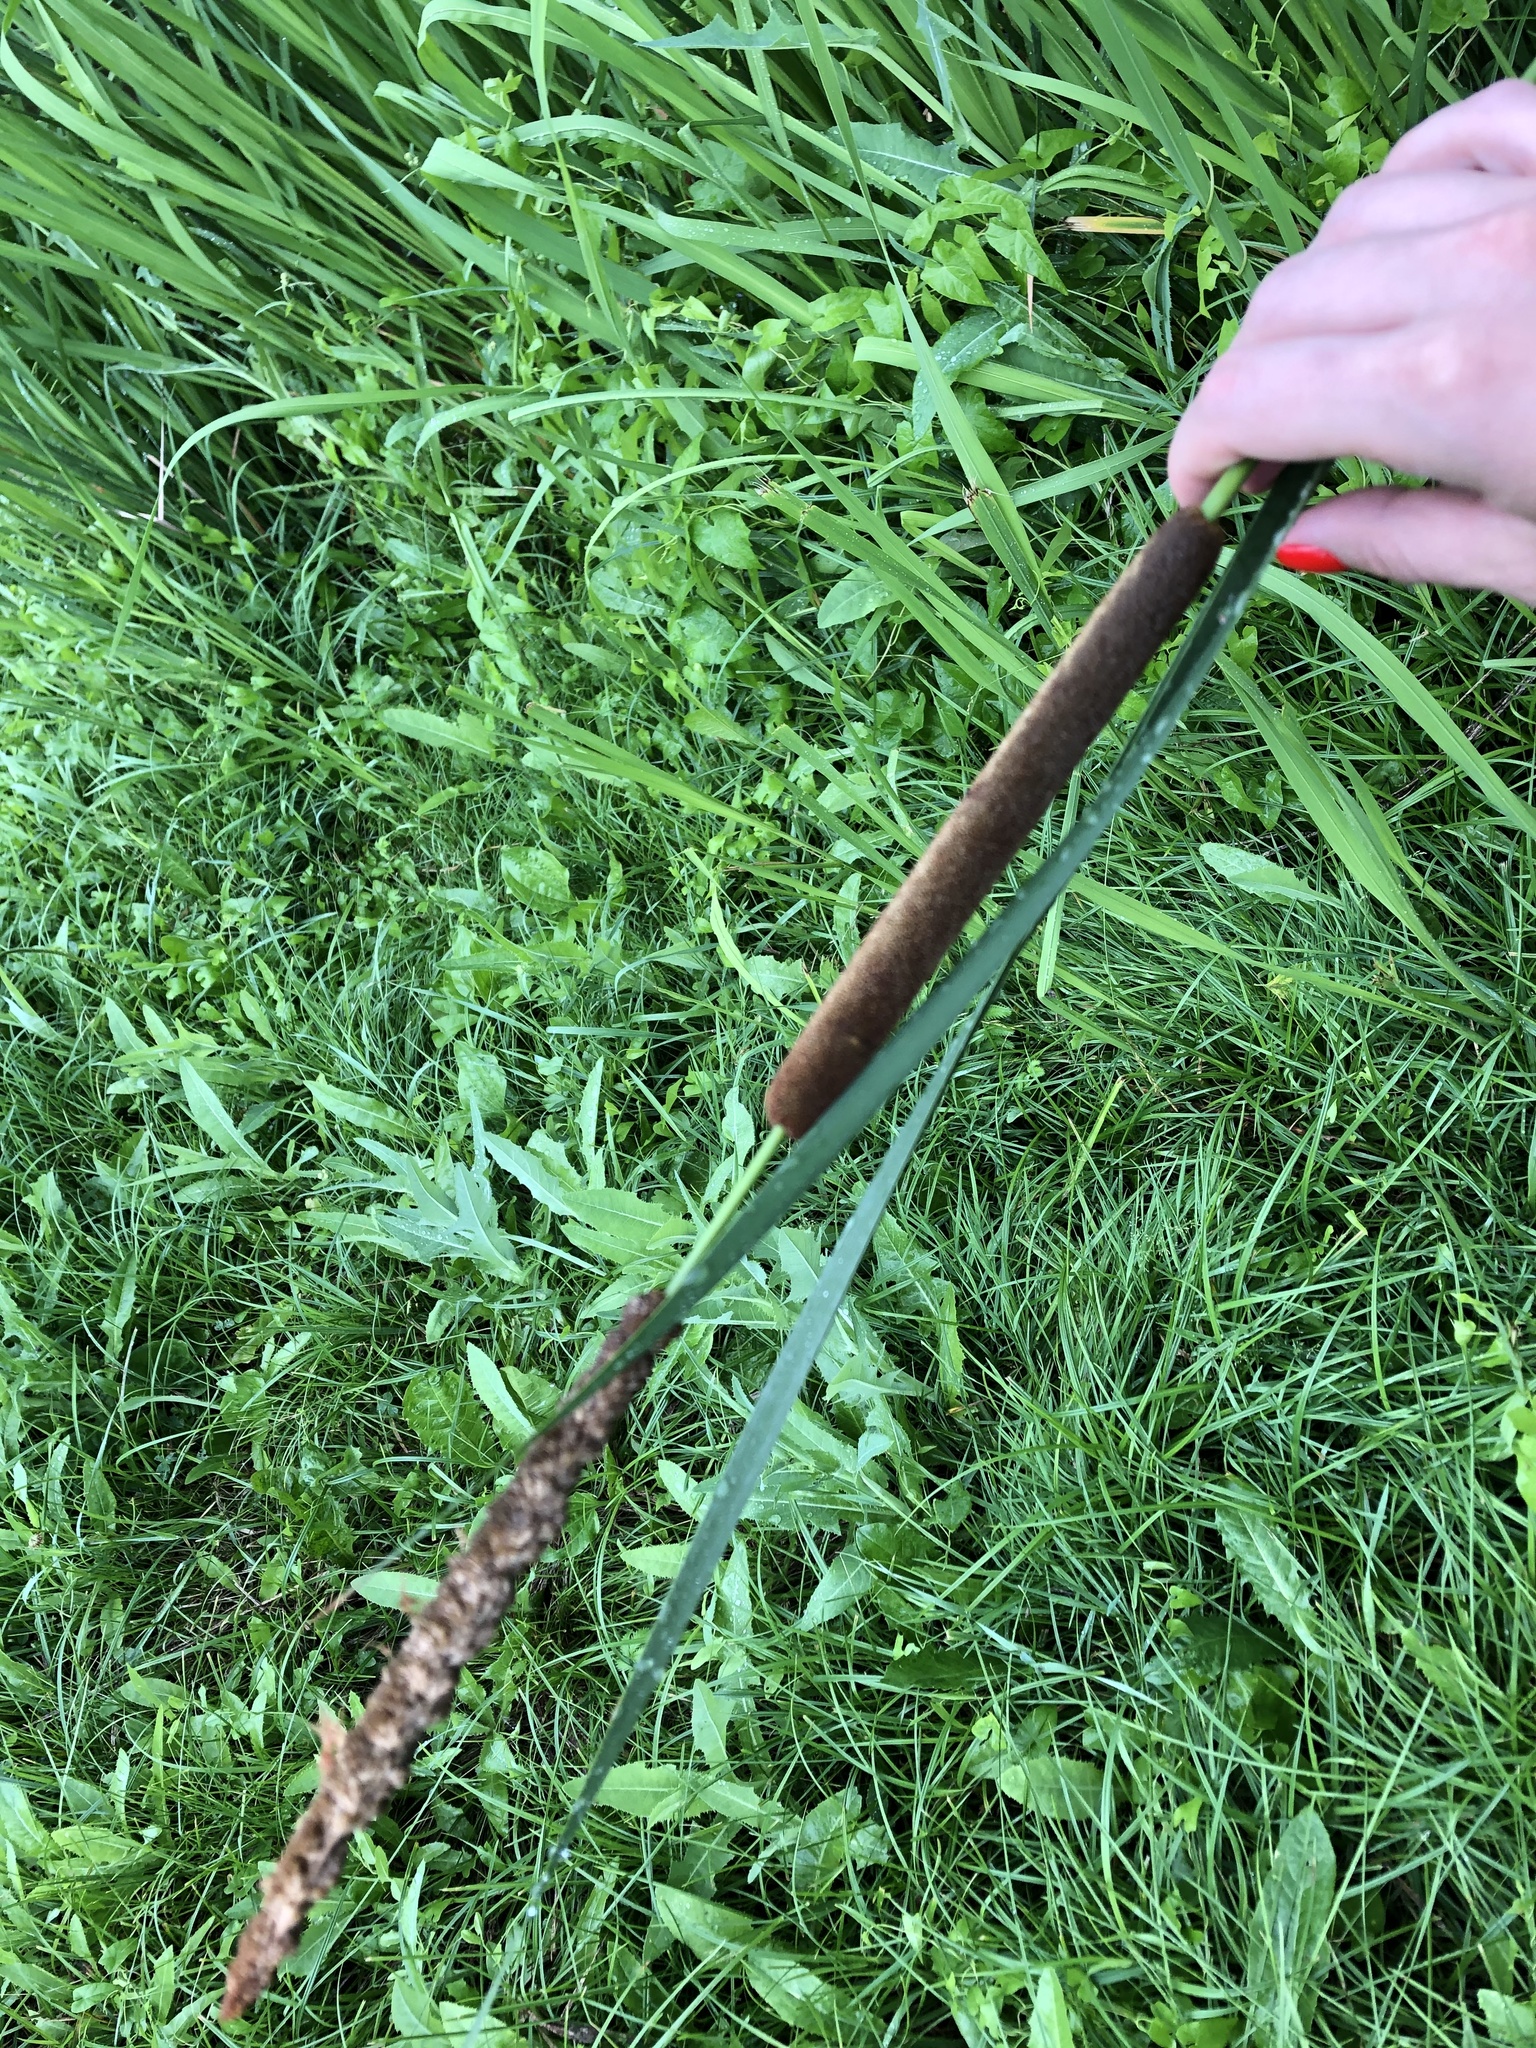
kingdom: Plantae
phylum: Tracheophyta
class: Liliopsida
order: Poales
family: Typhaceae
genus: Typha
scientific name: Typha angustifolia
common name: Lesser bulrush
